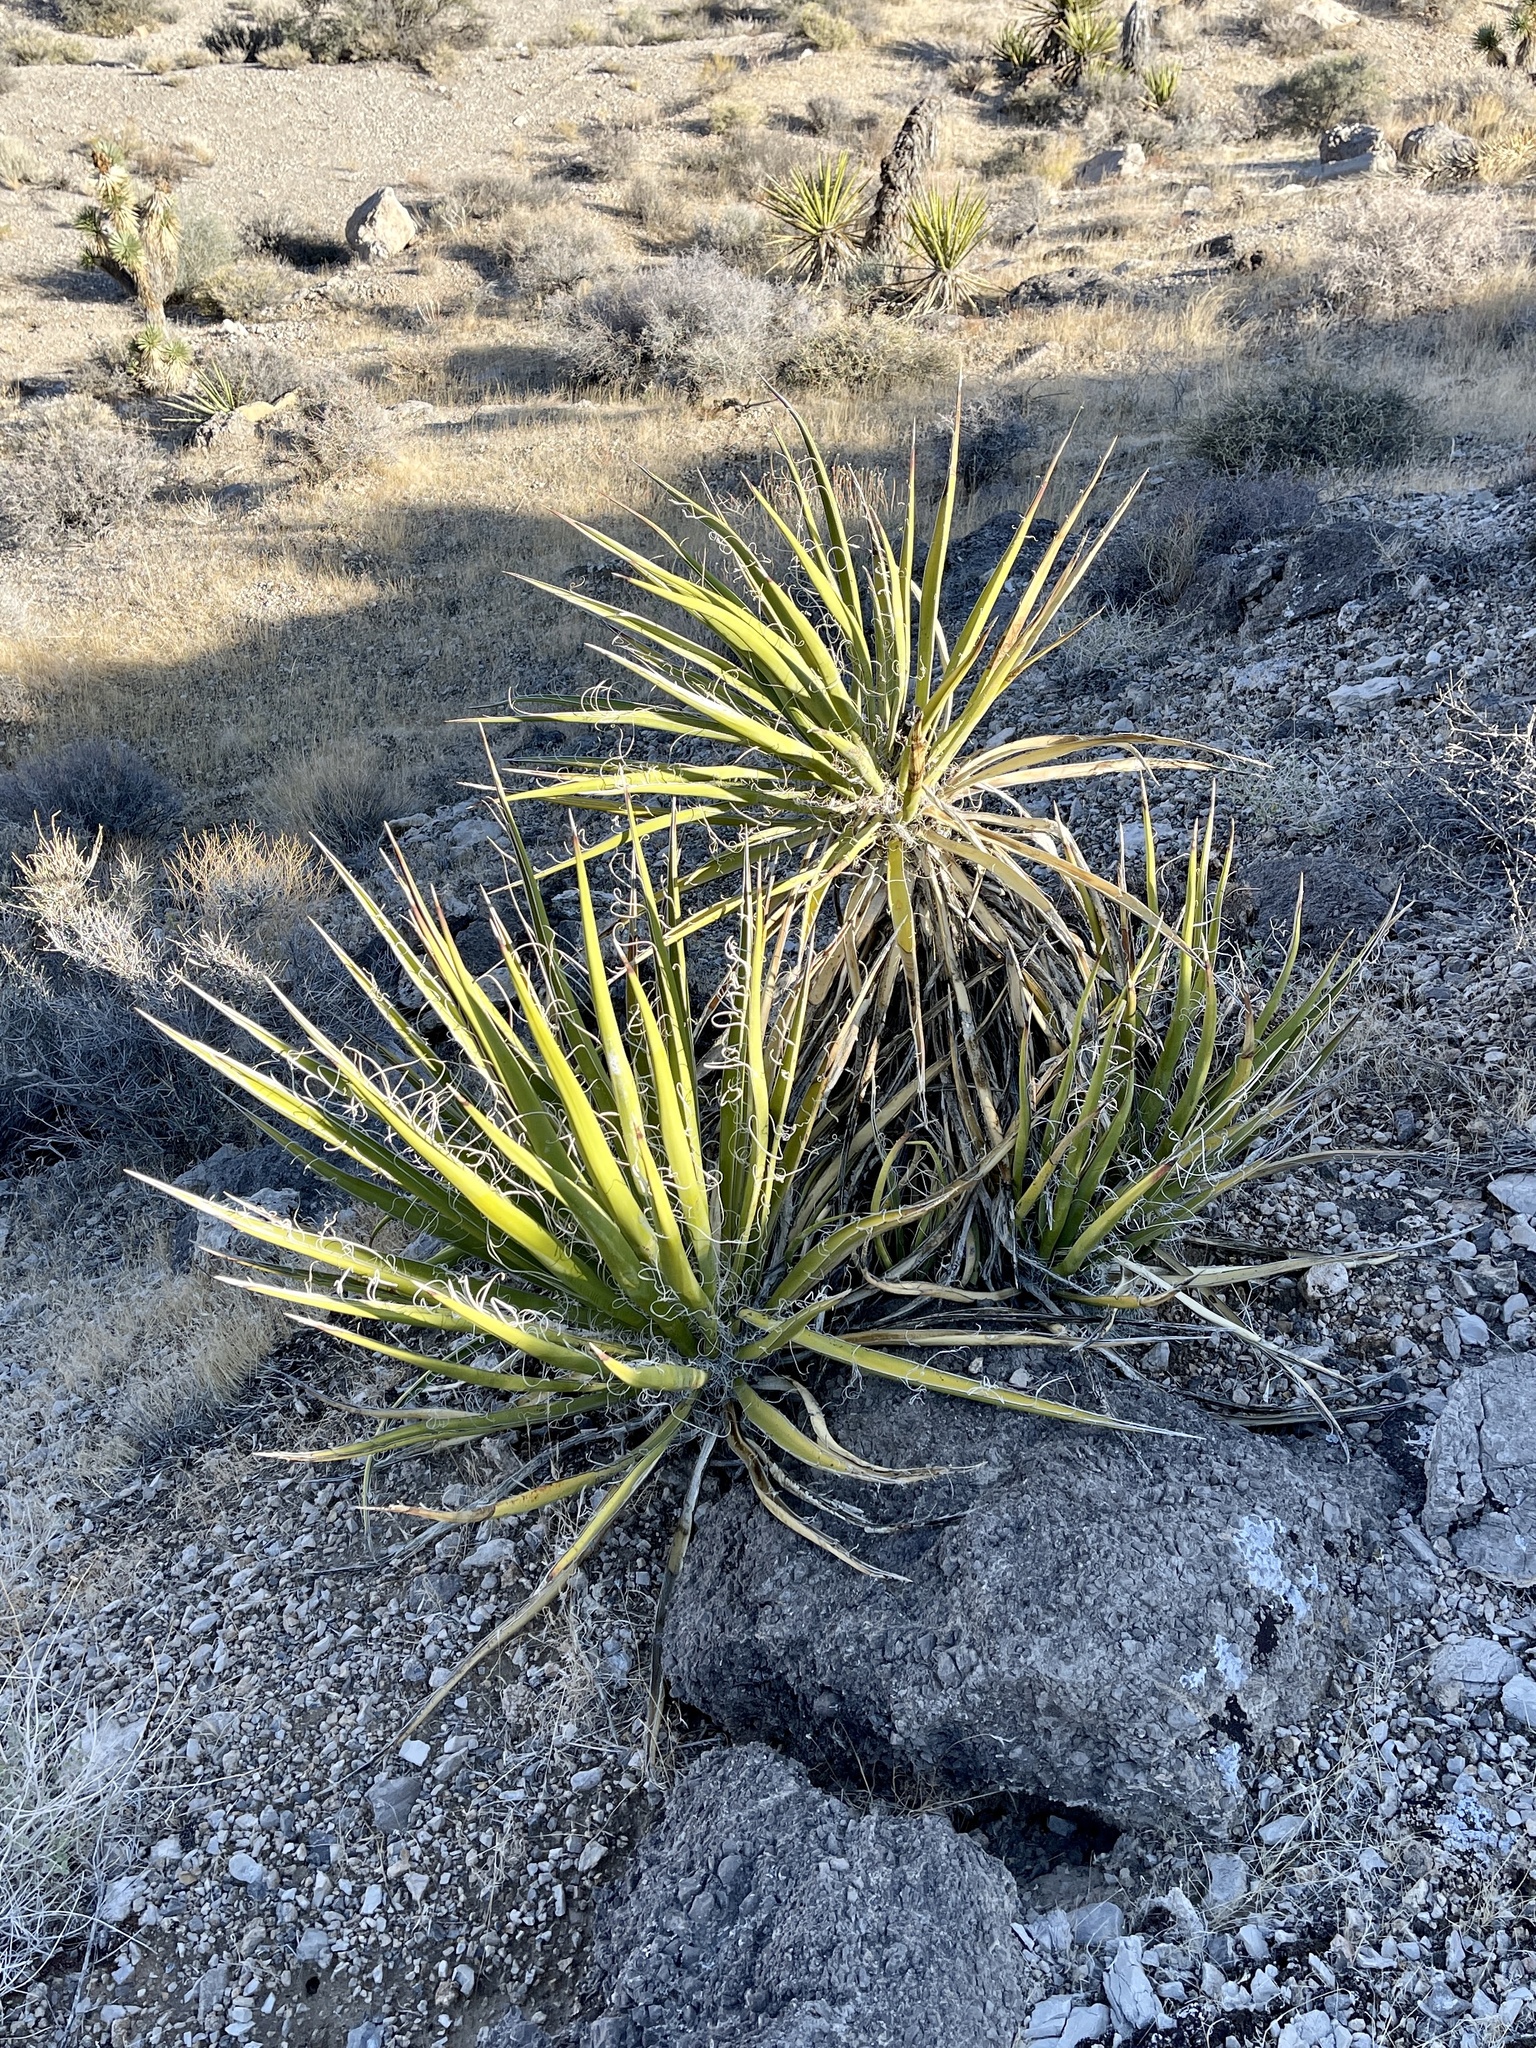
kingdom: Plantae
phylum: Tracheophyta
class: Liliopsida
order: Asparagales
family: Asparagaceae
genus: Yucca
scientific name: Yucca schidigera
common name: Mojave yucca
